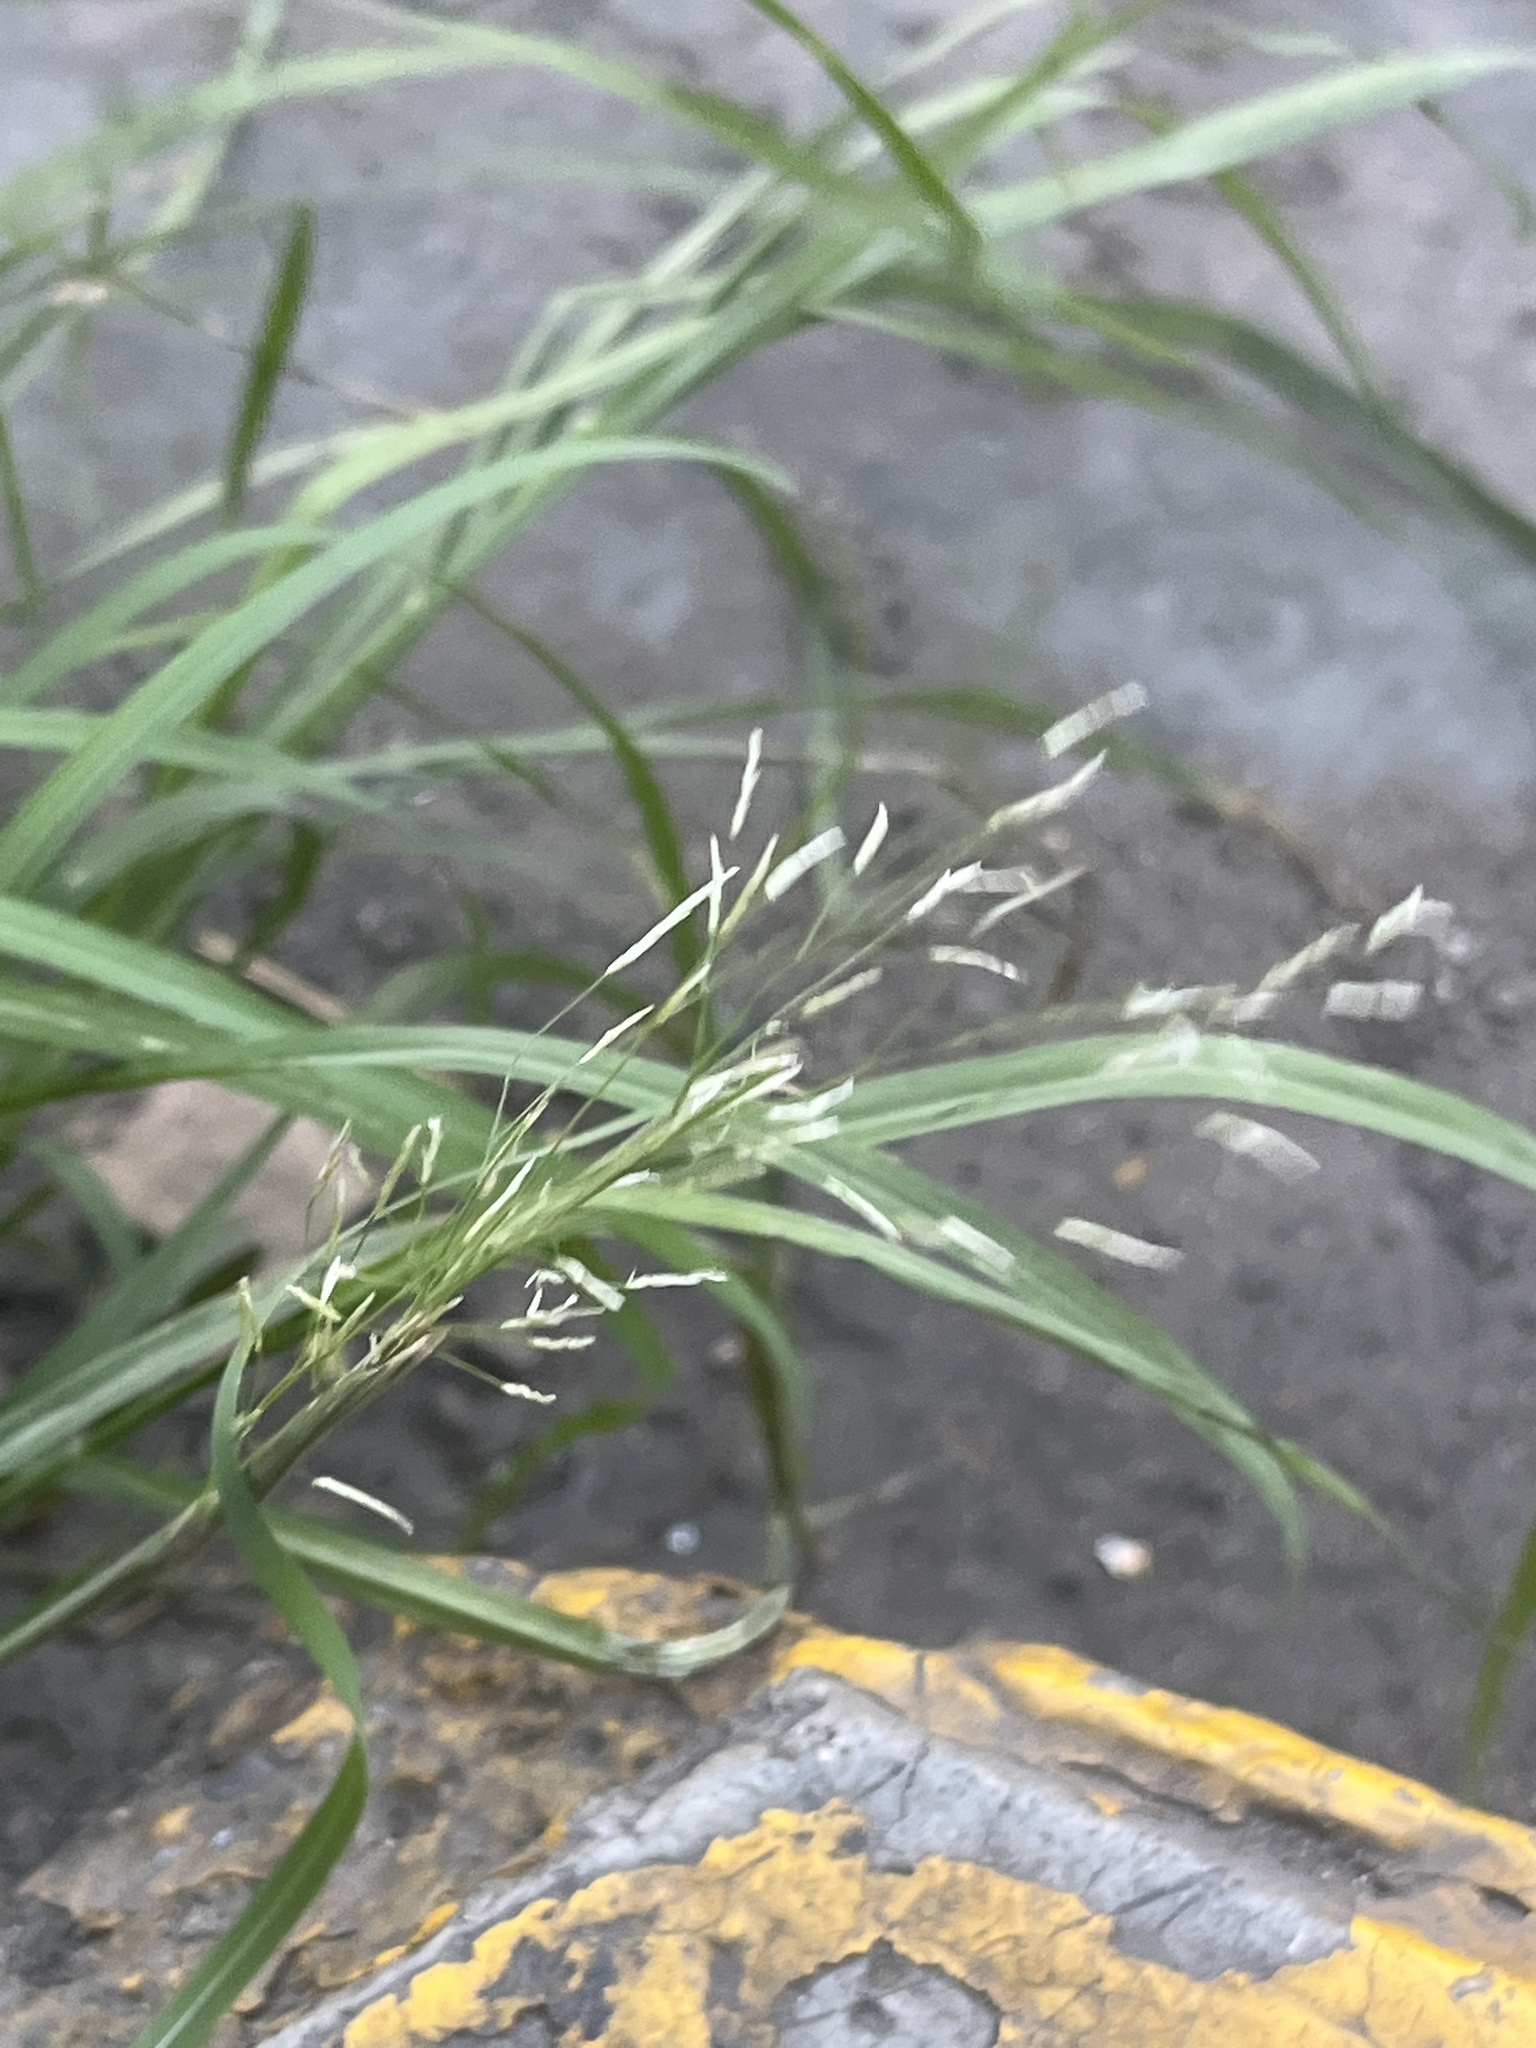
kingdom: Plantae
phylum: Tracheophyta
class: Liliopsida
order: Poales
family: Poaceae
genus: Eragrostis
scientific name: Eragrostis tenuifolia
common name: Elastic grass
